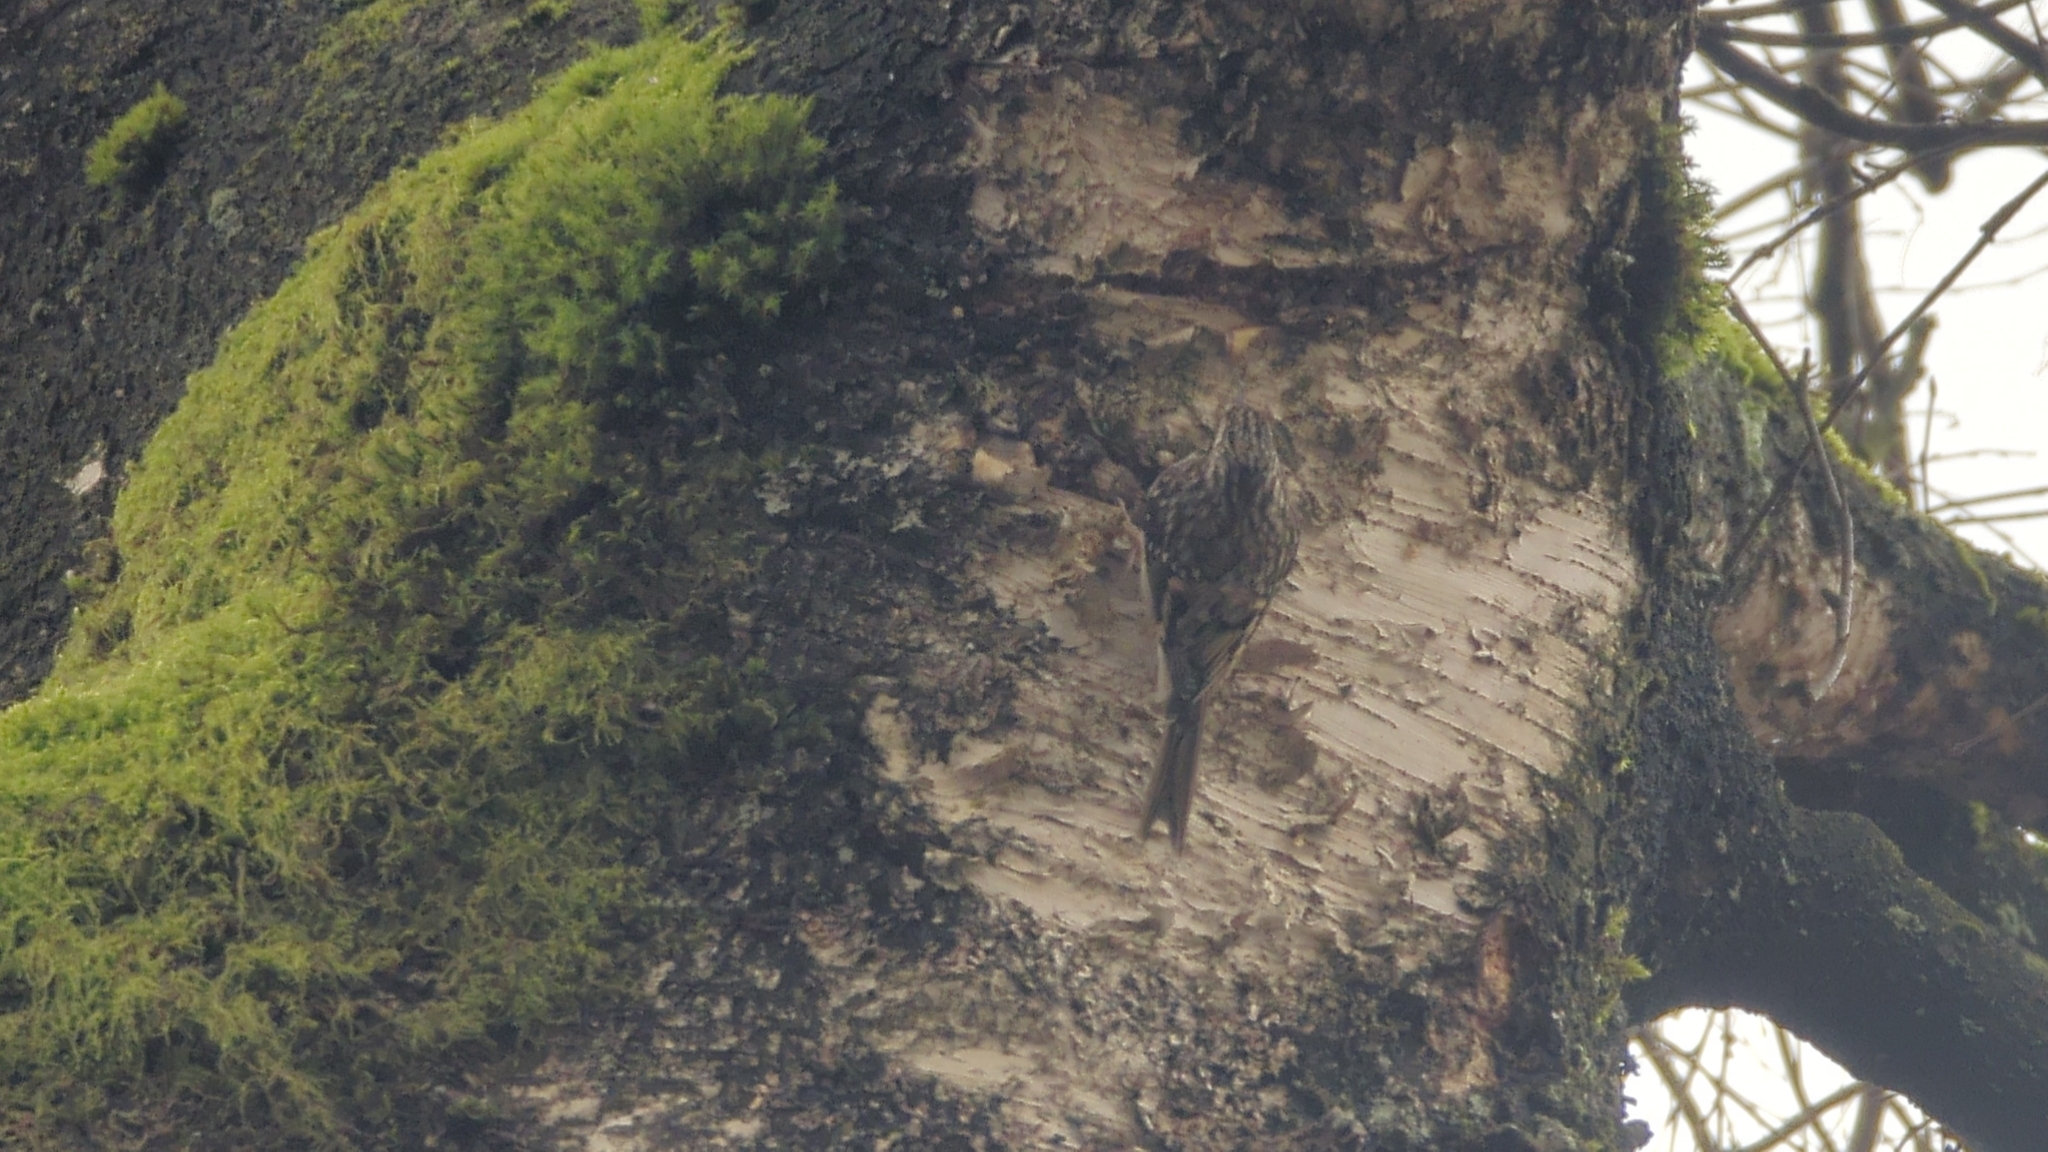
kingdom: Animalia
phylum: Chordata
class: Aves
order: Passeriformes
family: Certhiidae
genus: Certhia
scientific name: Certhia americana
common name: Brown creeper
